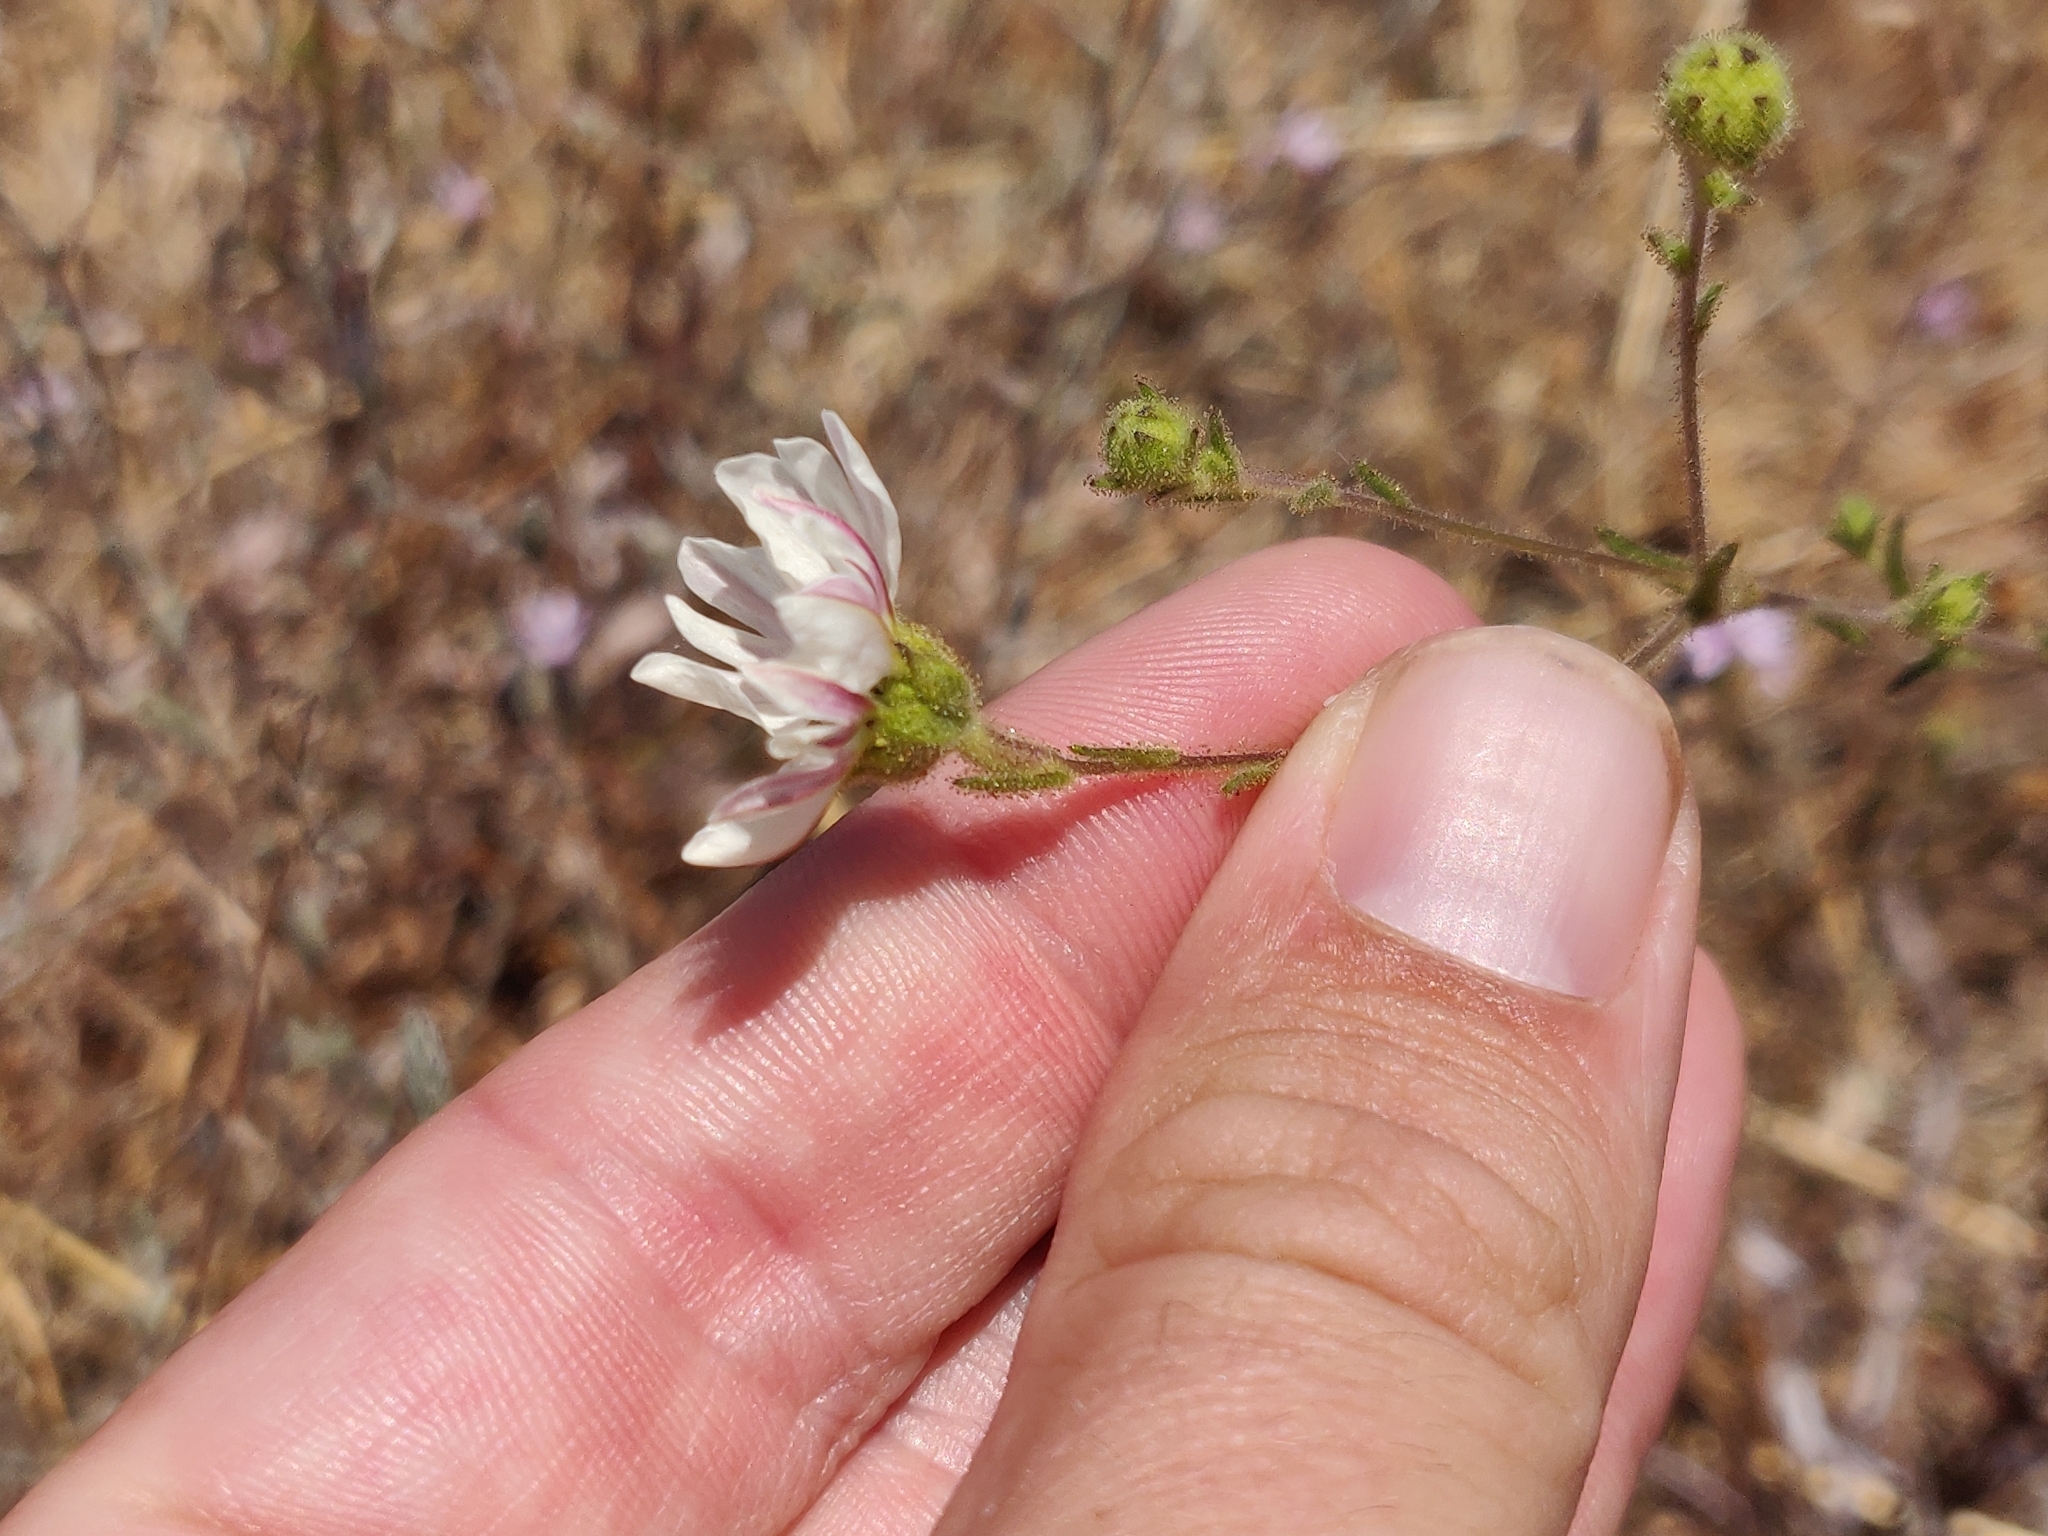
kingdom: Plantae
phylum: Tracheophyta
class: Magnoliopsida
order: Asterales
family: Asteraceae
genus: Hemizonia
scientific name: Hemizonia congesta
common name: Hayfield tarweed
